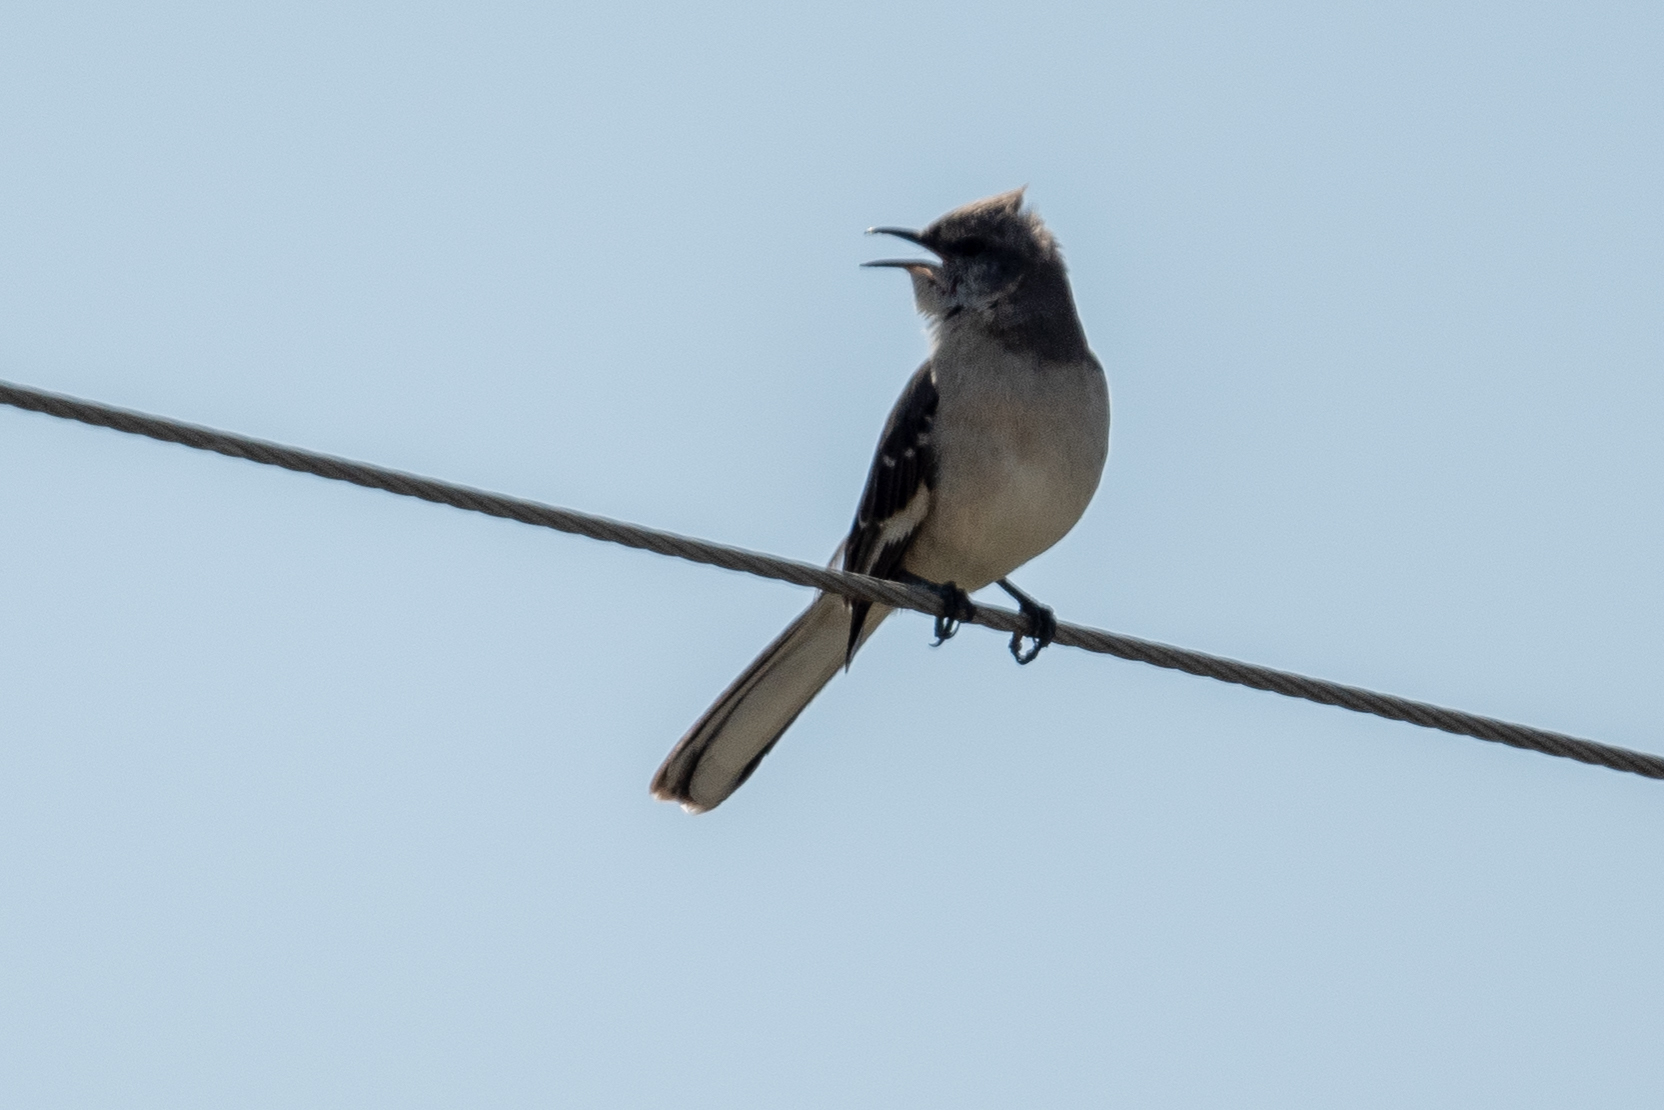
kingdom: Animalia
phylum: Chordata
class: Aves
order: Passeriformes
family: Mimidae
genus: Mimus
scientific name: Mimus polyglottos
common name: Northern mockingbird
